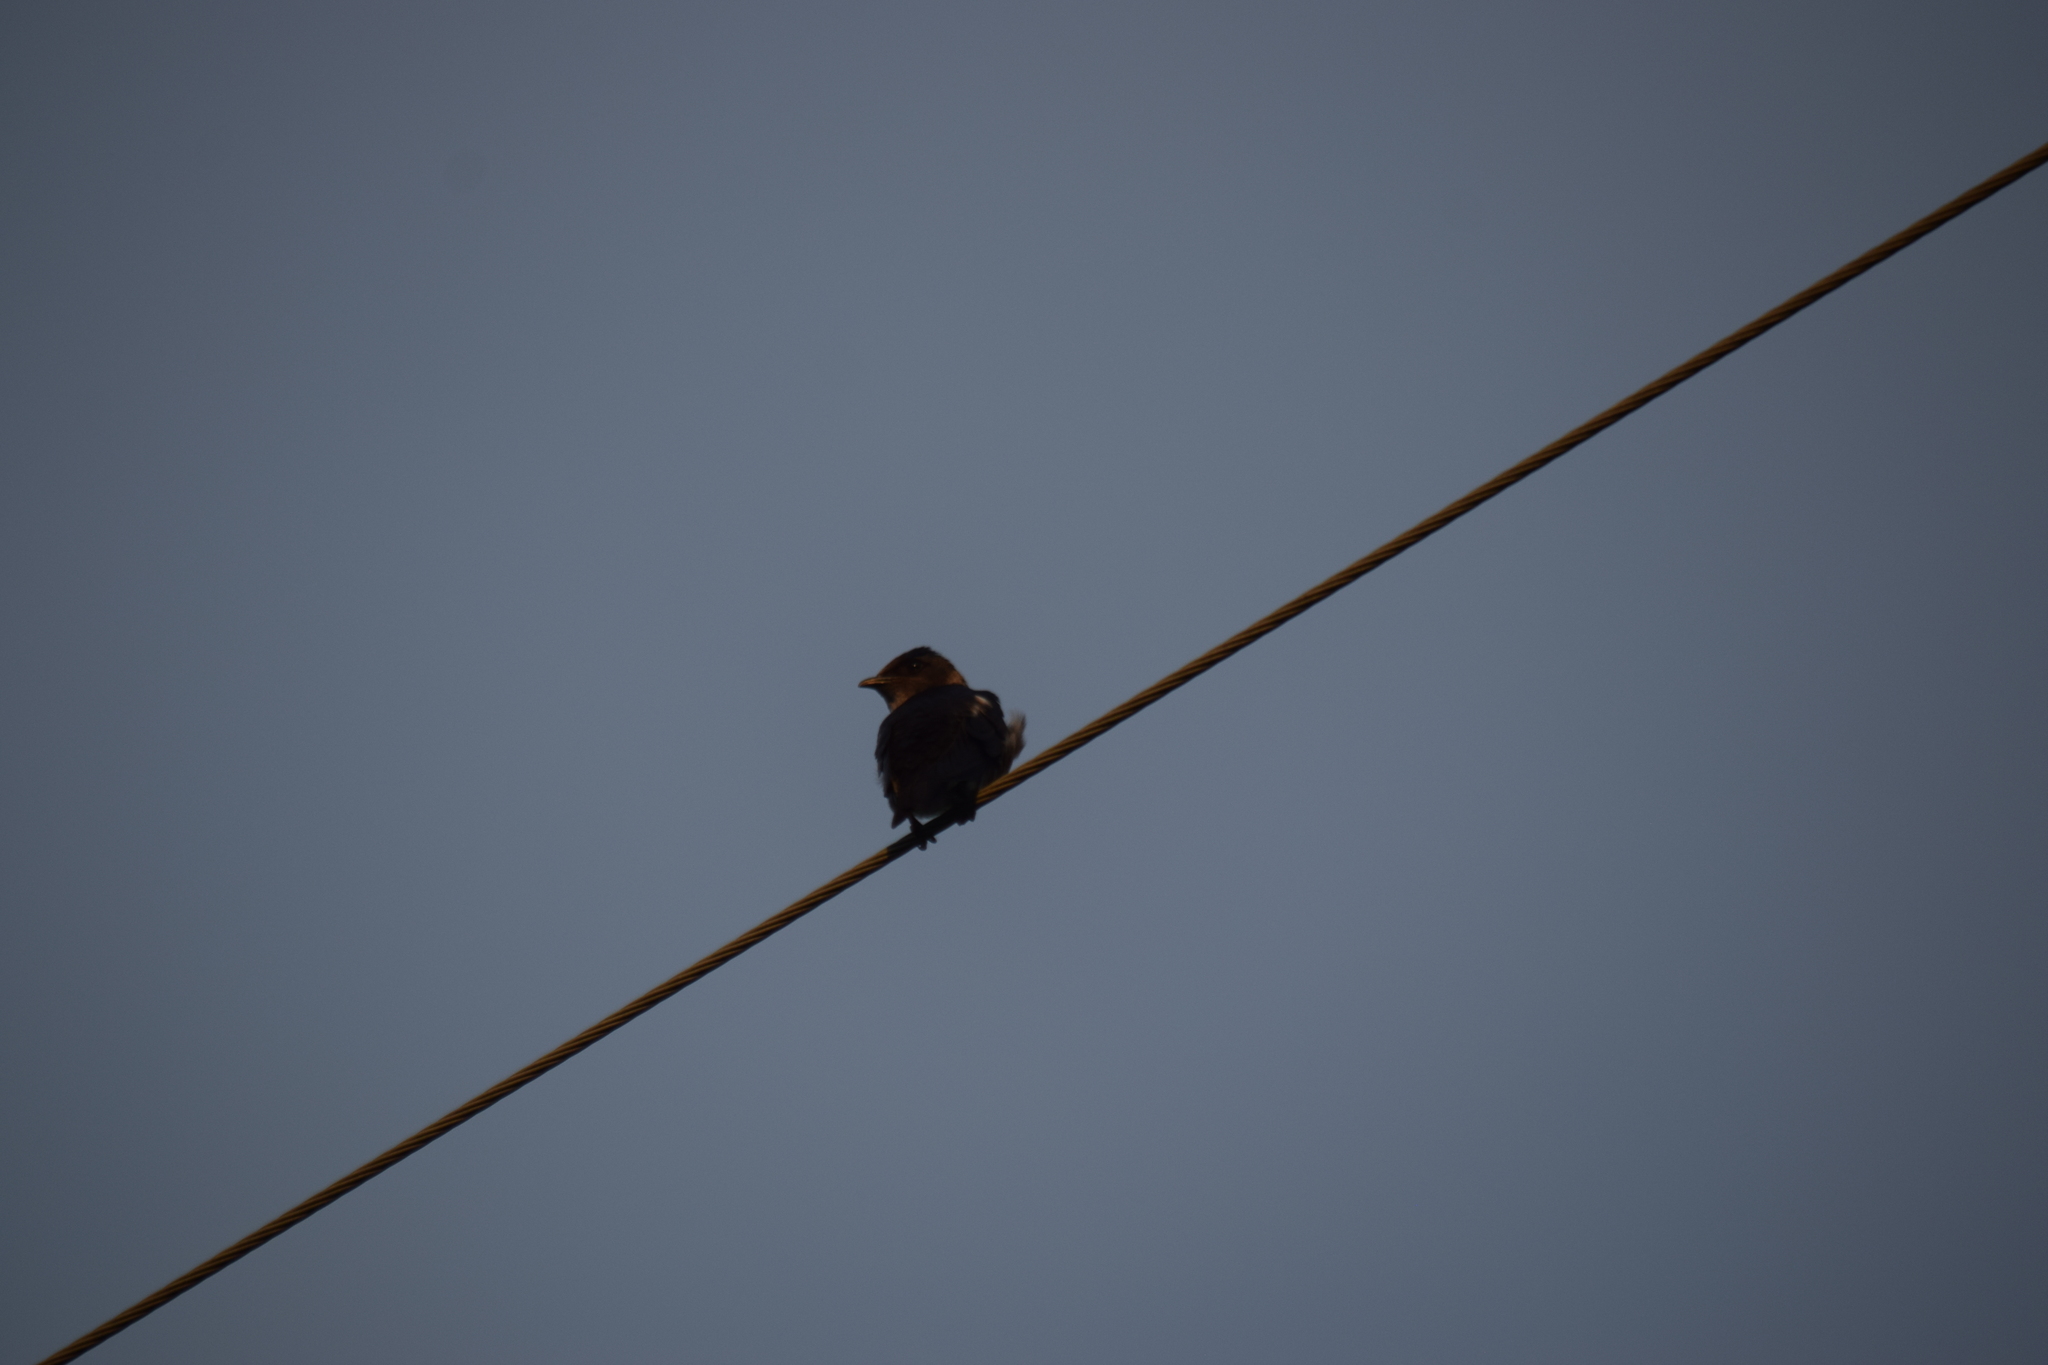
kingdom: Animalia
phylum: Chordata
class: Aves
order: Passeriformes
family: Hirundinidae
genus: Progne
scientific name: Progne subis
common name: Purple martin
